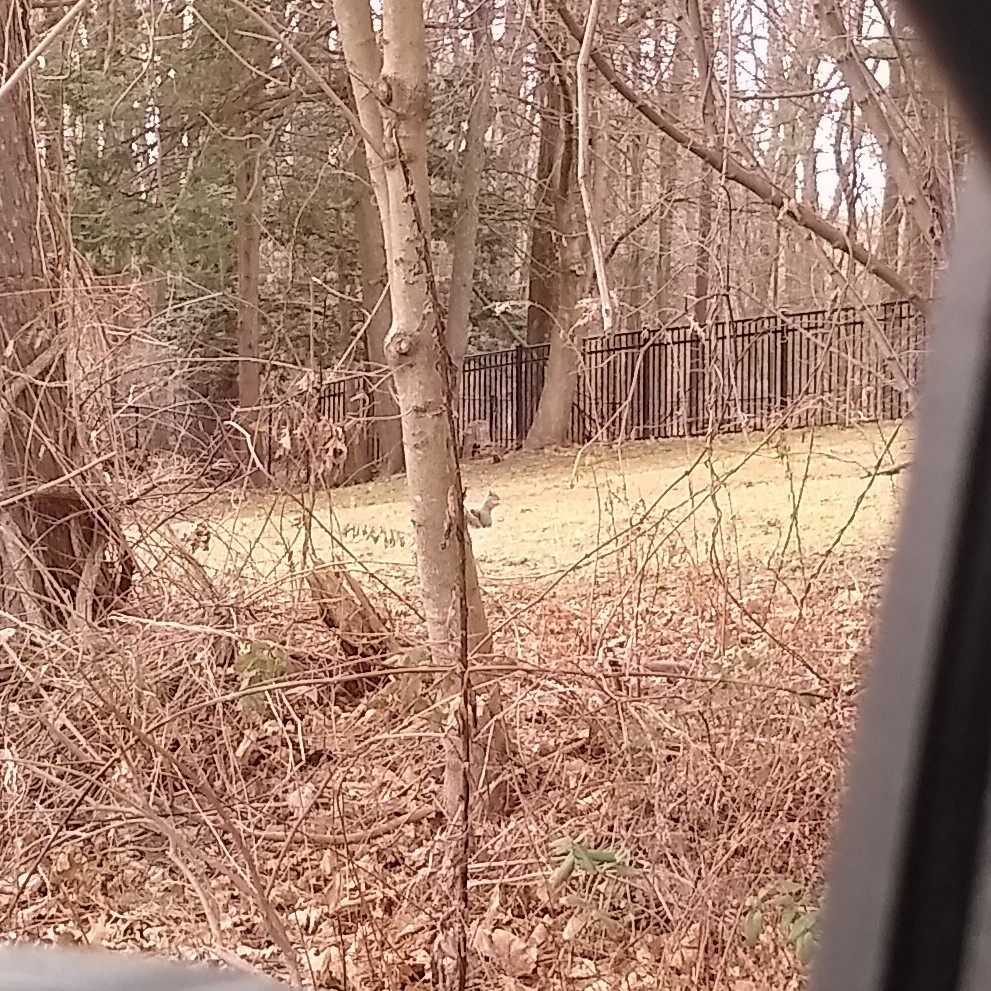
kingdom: Animalia
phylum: Chordata
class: Mammalia
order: Rodentia
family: Sciuridae
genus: Sciurus
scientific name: Sciurus carolinensis
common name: Eastern gray squirrel
